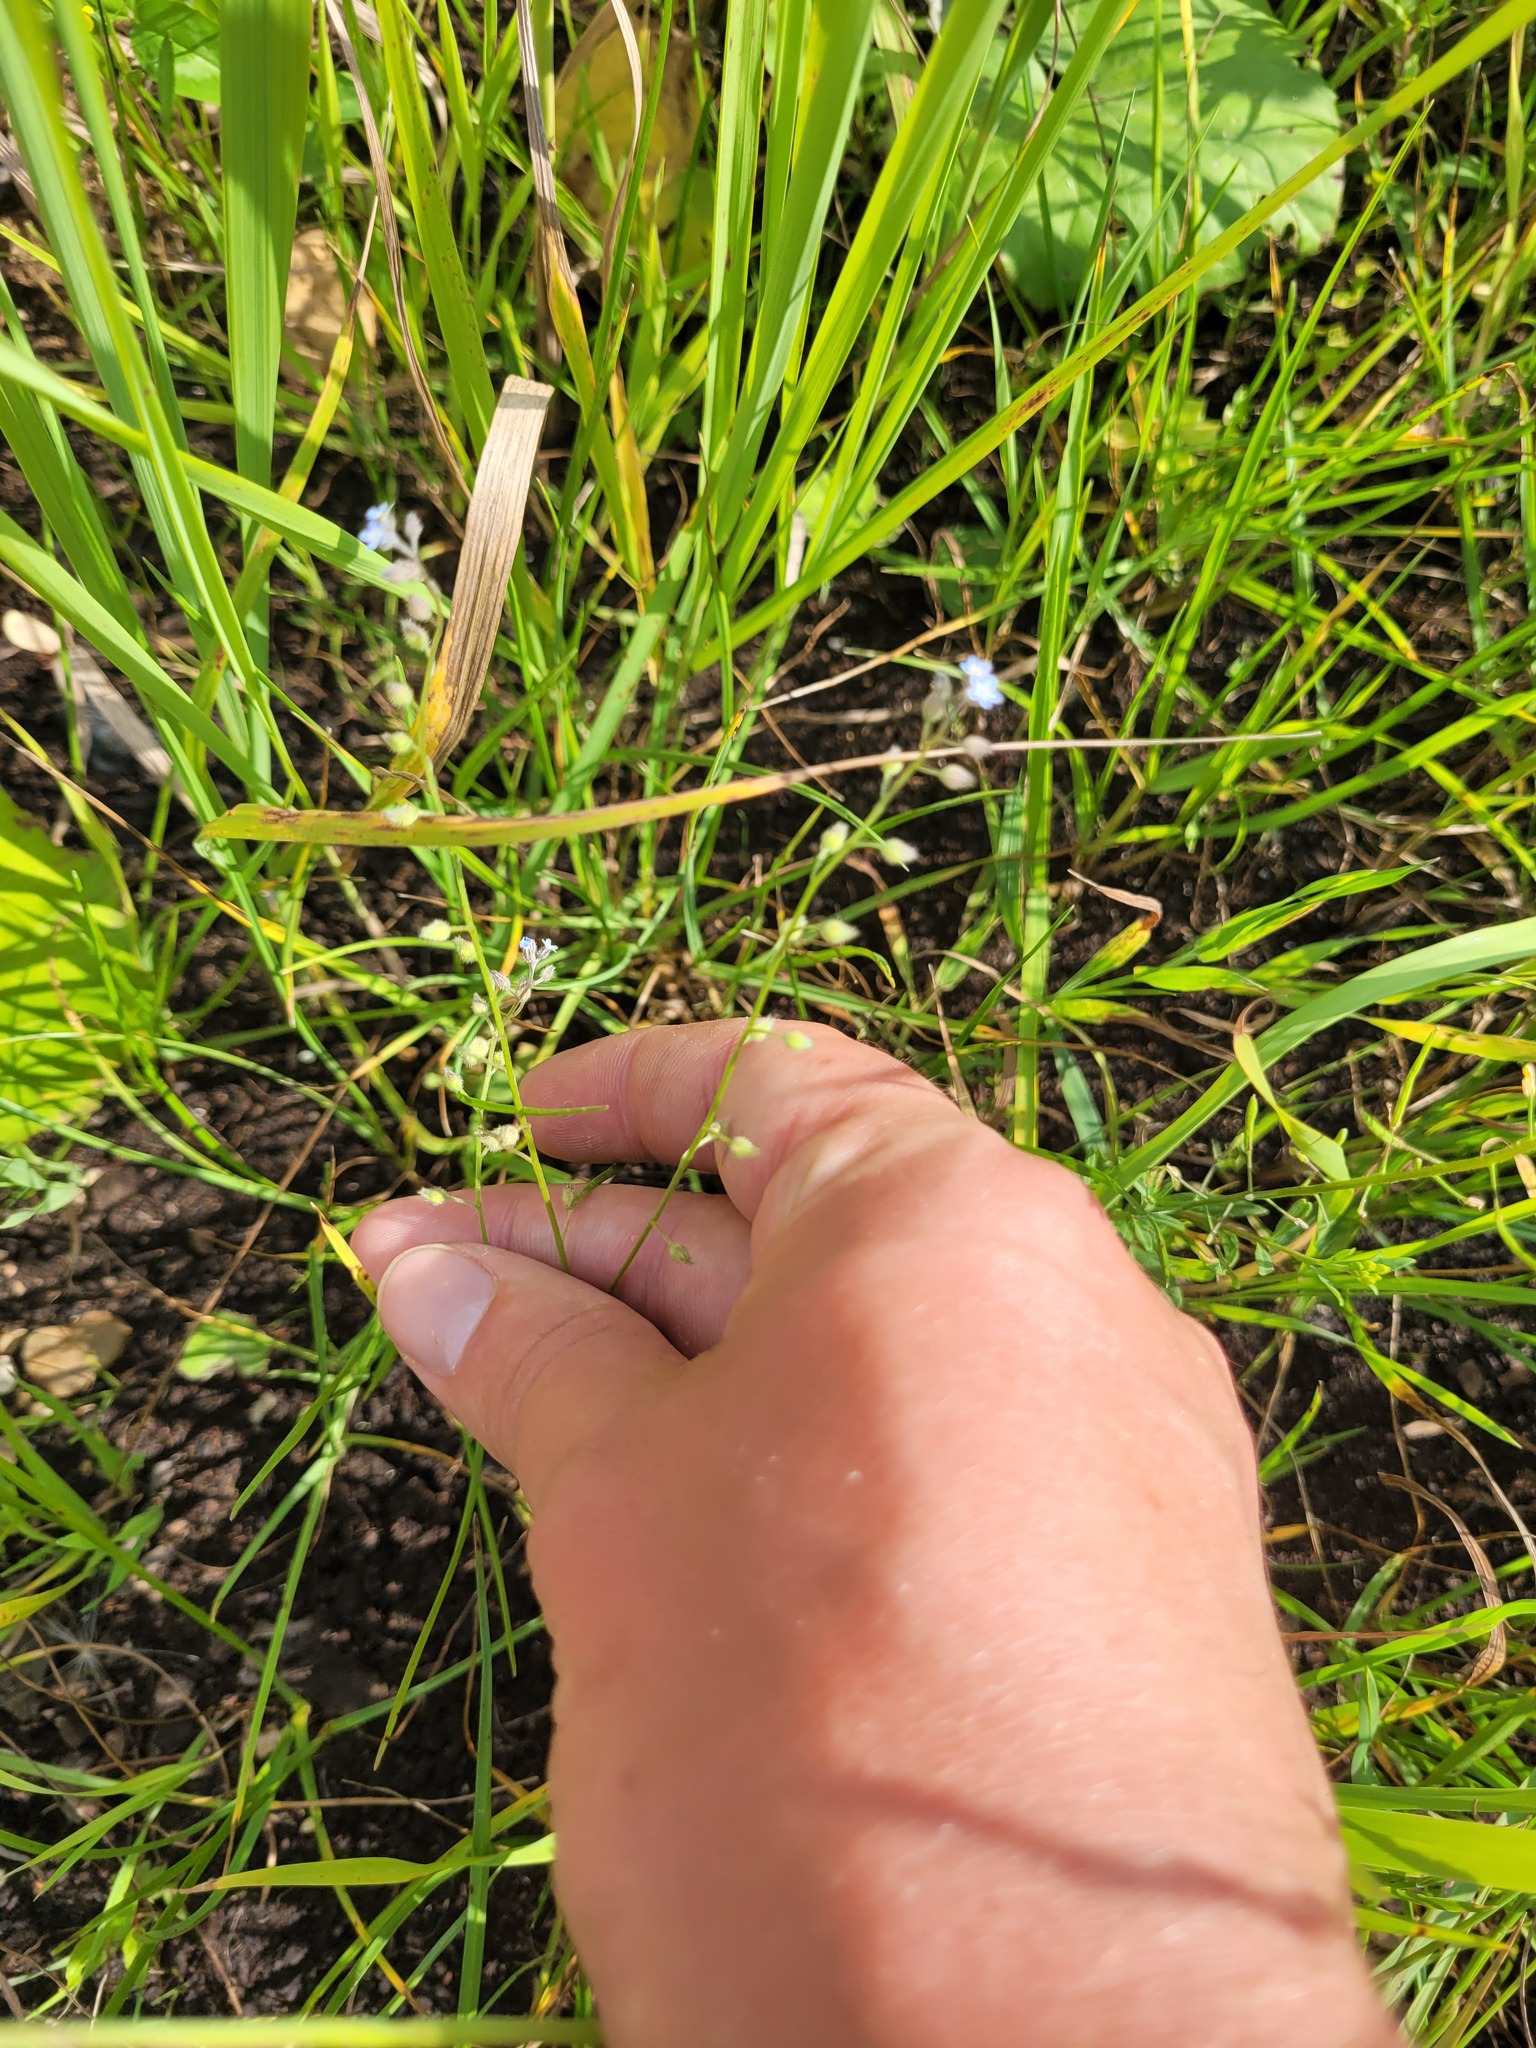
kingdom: Plantae
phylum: Tracheophyta
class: Magnoliopsida
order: Boraginales
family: Boraginaceae
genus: Myosotis
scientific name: Myosotis arvensis
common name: Field forget-me-not
